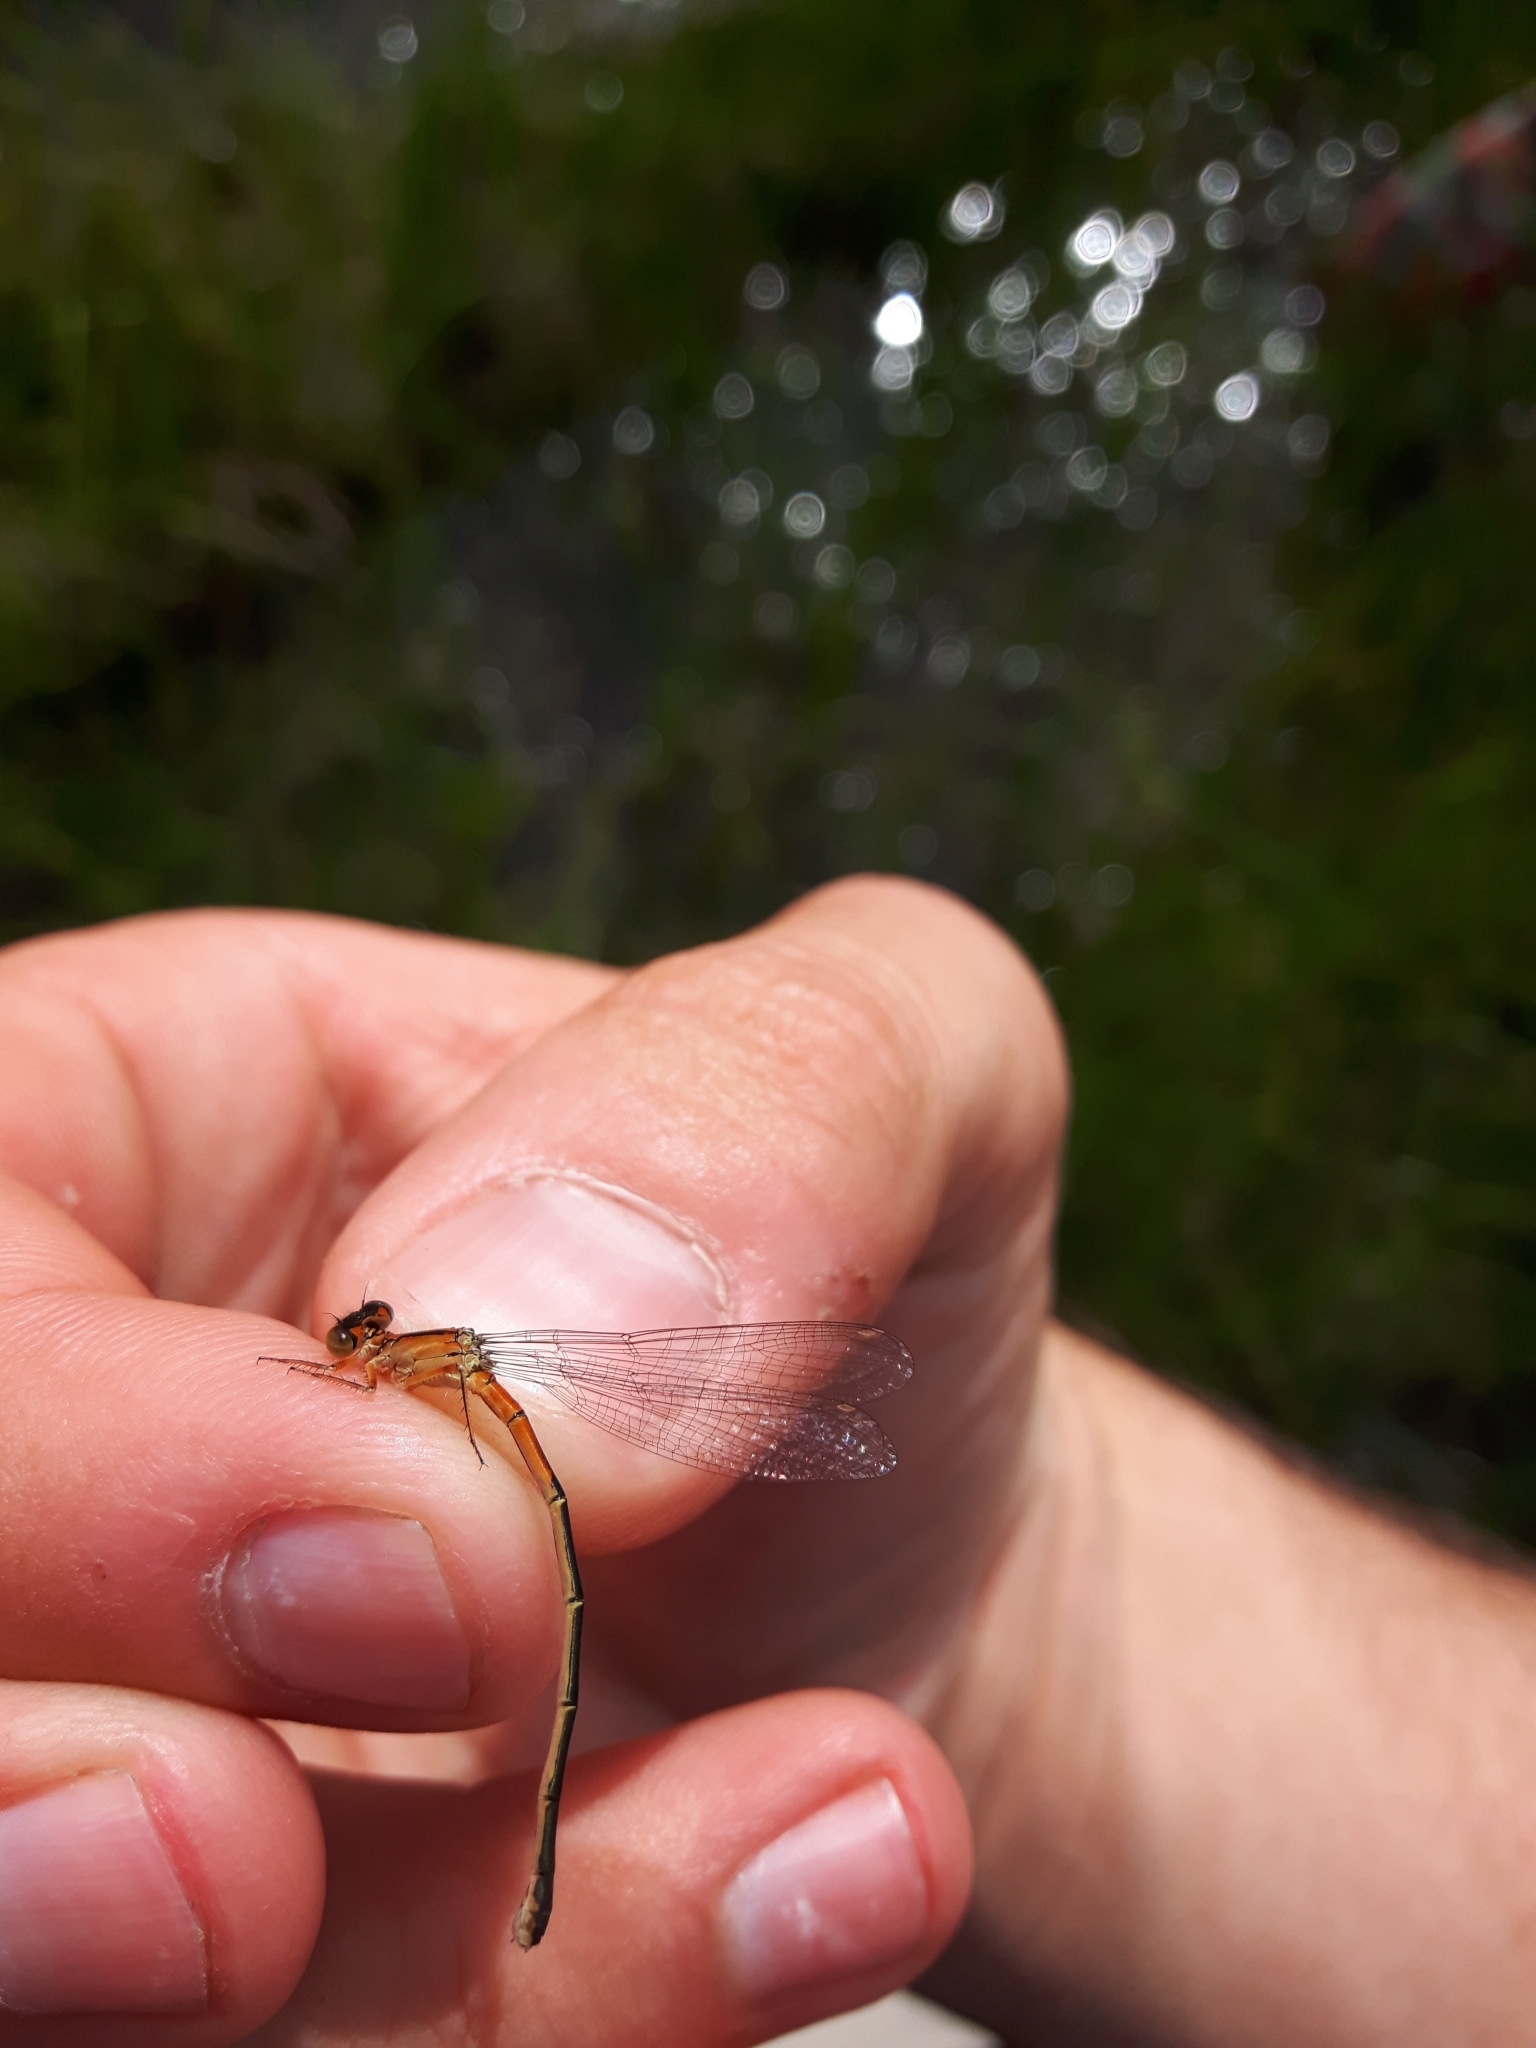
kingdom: Animalia
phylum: Arthropoda
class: Insecta
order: Odonata
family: Coenagrionidae
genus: Ischnura
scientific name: Ischnura verticalis
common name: Eastern forktail
